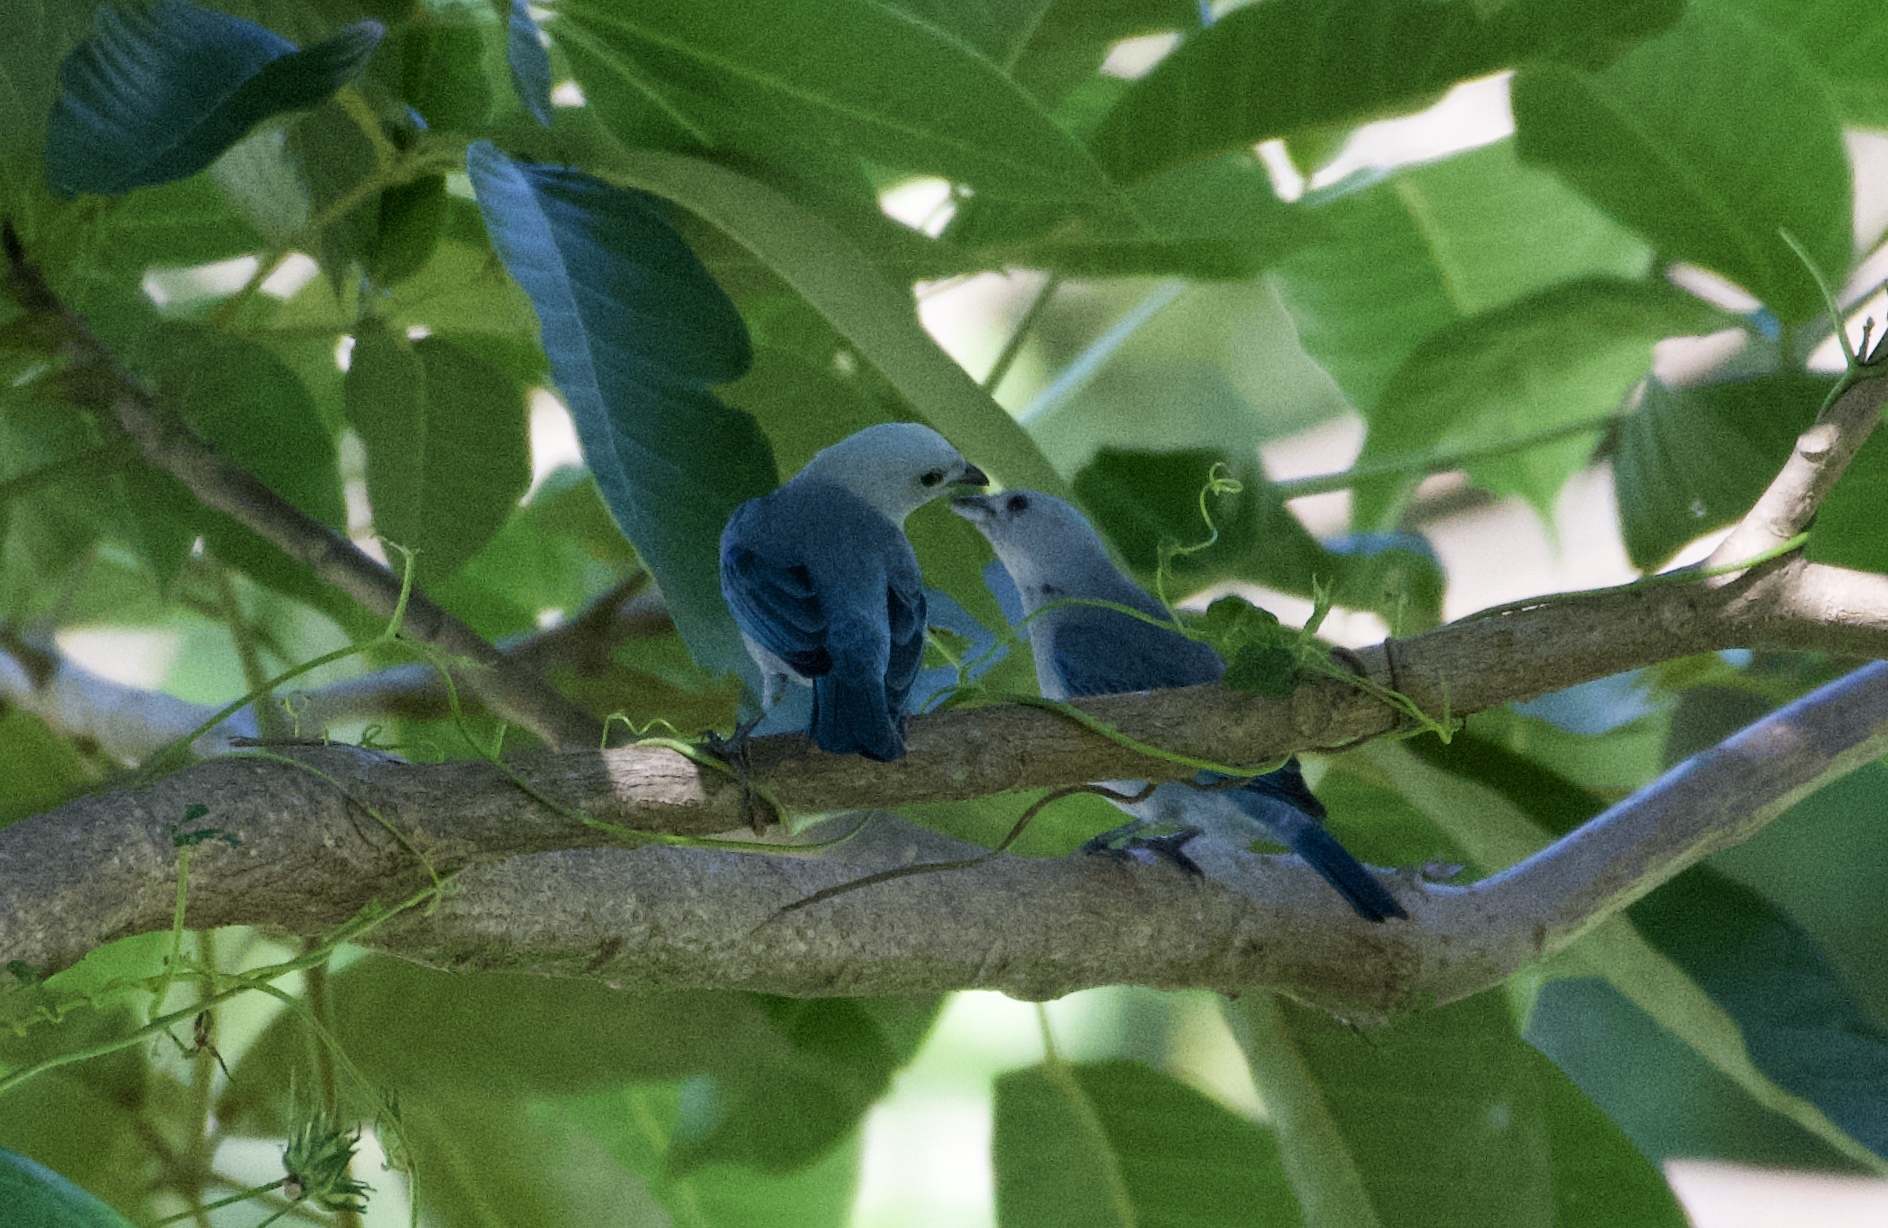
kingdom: Animalia
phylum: Chordata
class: Aves
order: Passeriformes
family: Thraupidae
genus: Thraupis
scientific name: Thraupis episcopus
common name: Blue-grey tanager
